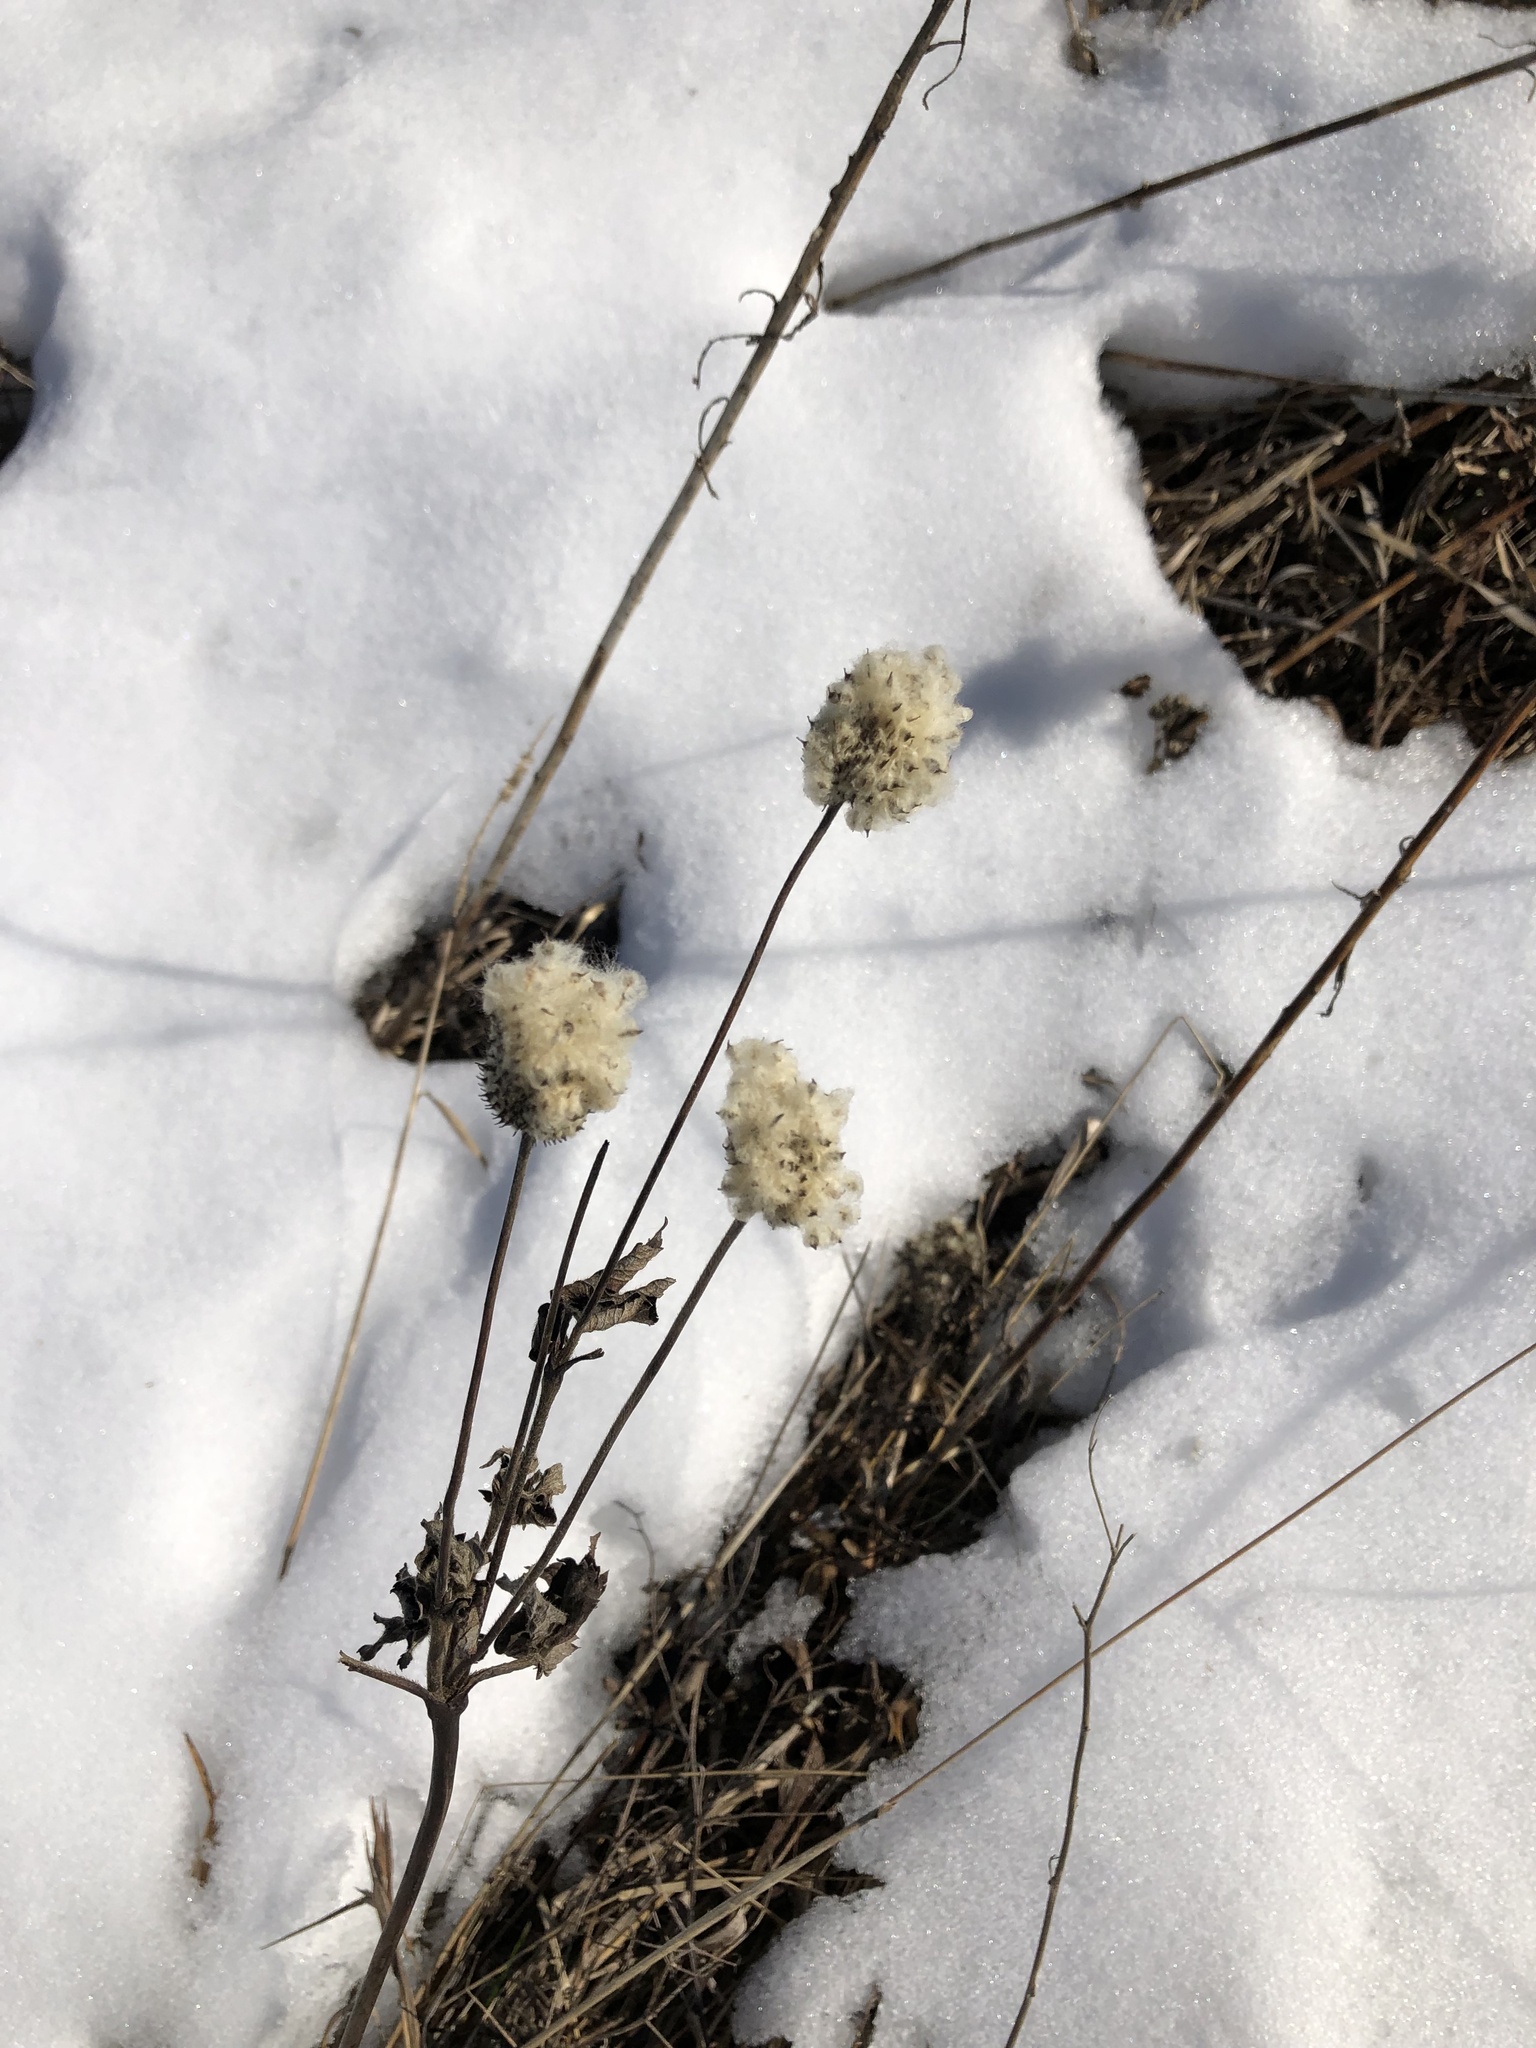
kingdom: Plantae
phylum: Tracheophyta
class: Magnoliopsida
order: Ranunculales
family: Ranunculaceae
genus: Anemone
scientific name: Anemone virginiana
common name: Tall anemone
